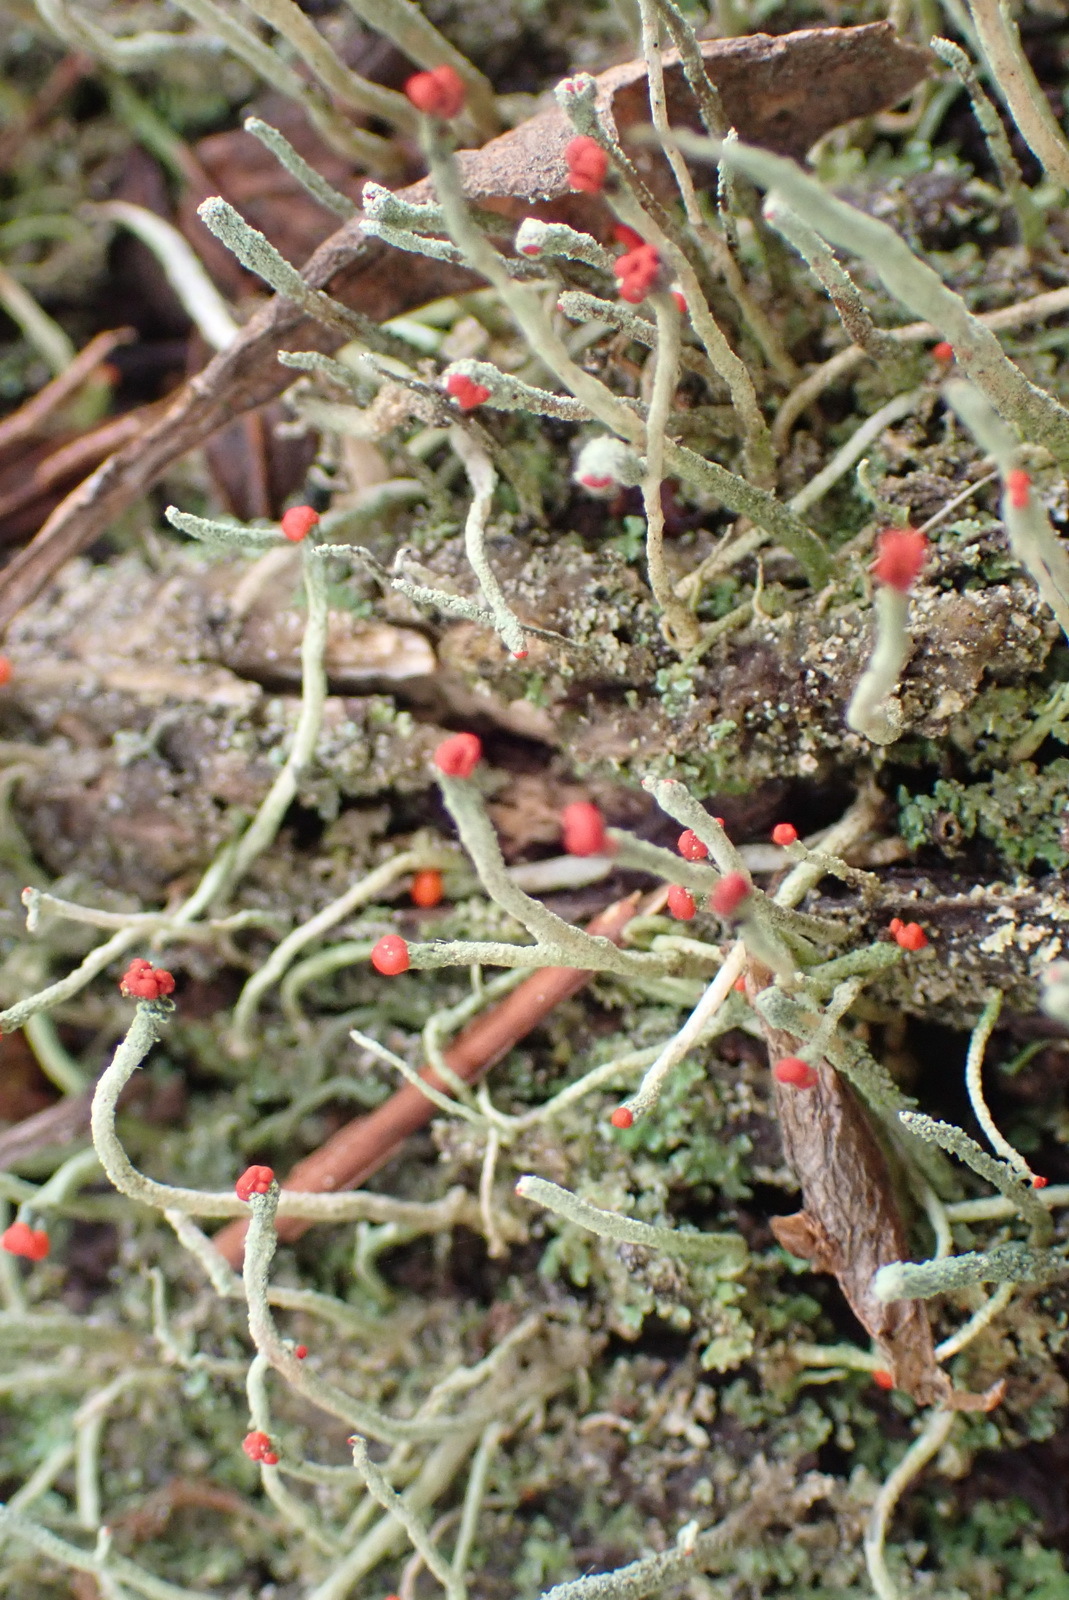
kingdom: Fungi
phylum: Ascomycota
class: Lecanoromycetes
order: Lecanorales
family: Cladoniaceae
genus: Cladonia
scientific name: Cladonia macilenta
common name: Lipstick powderhorn
